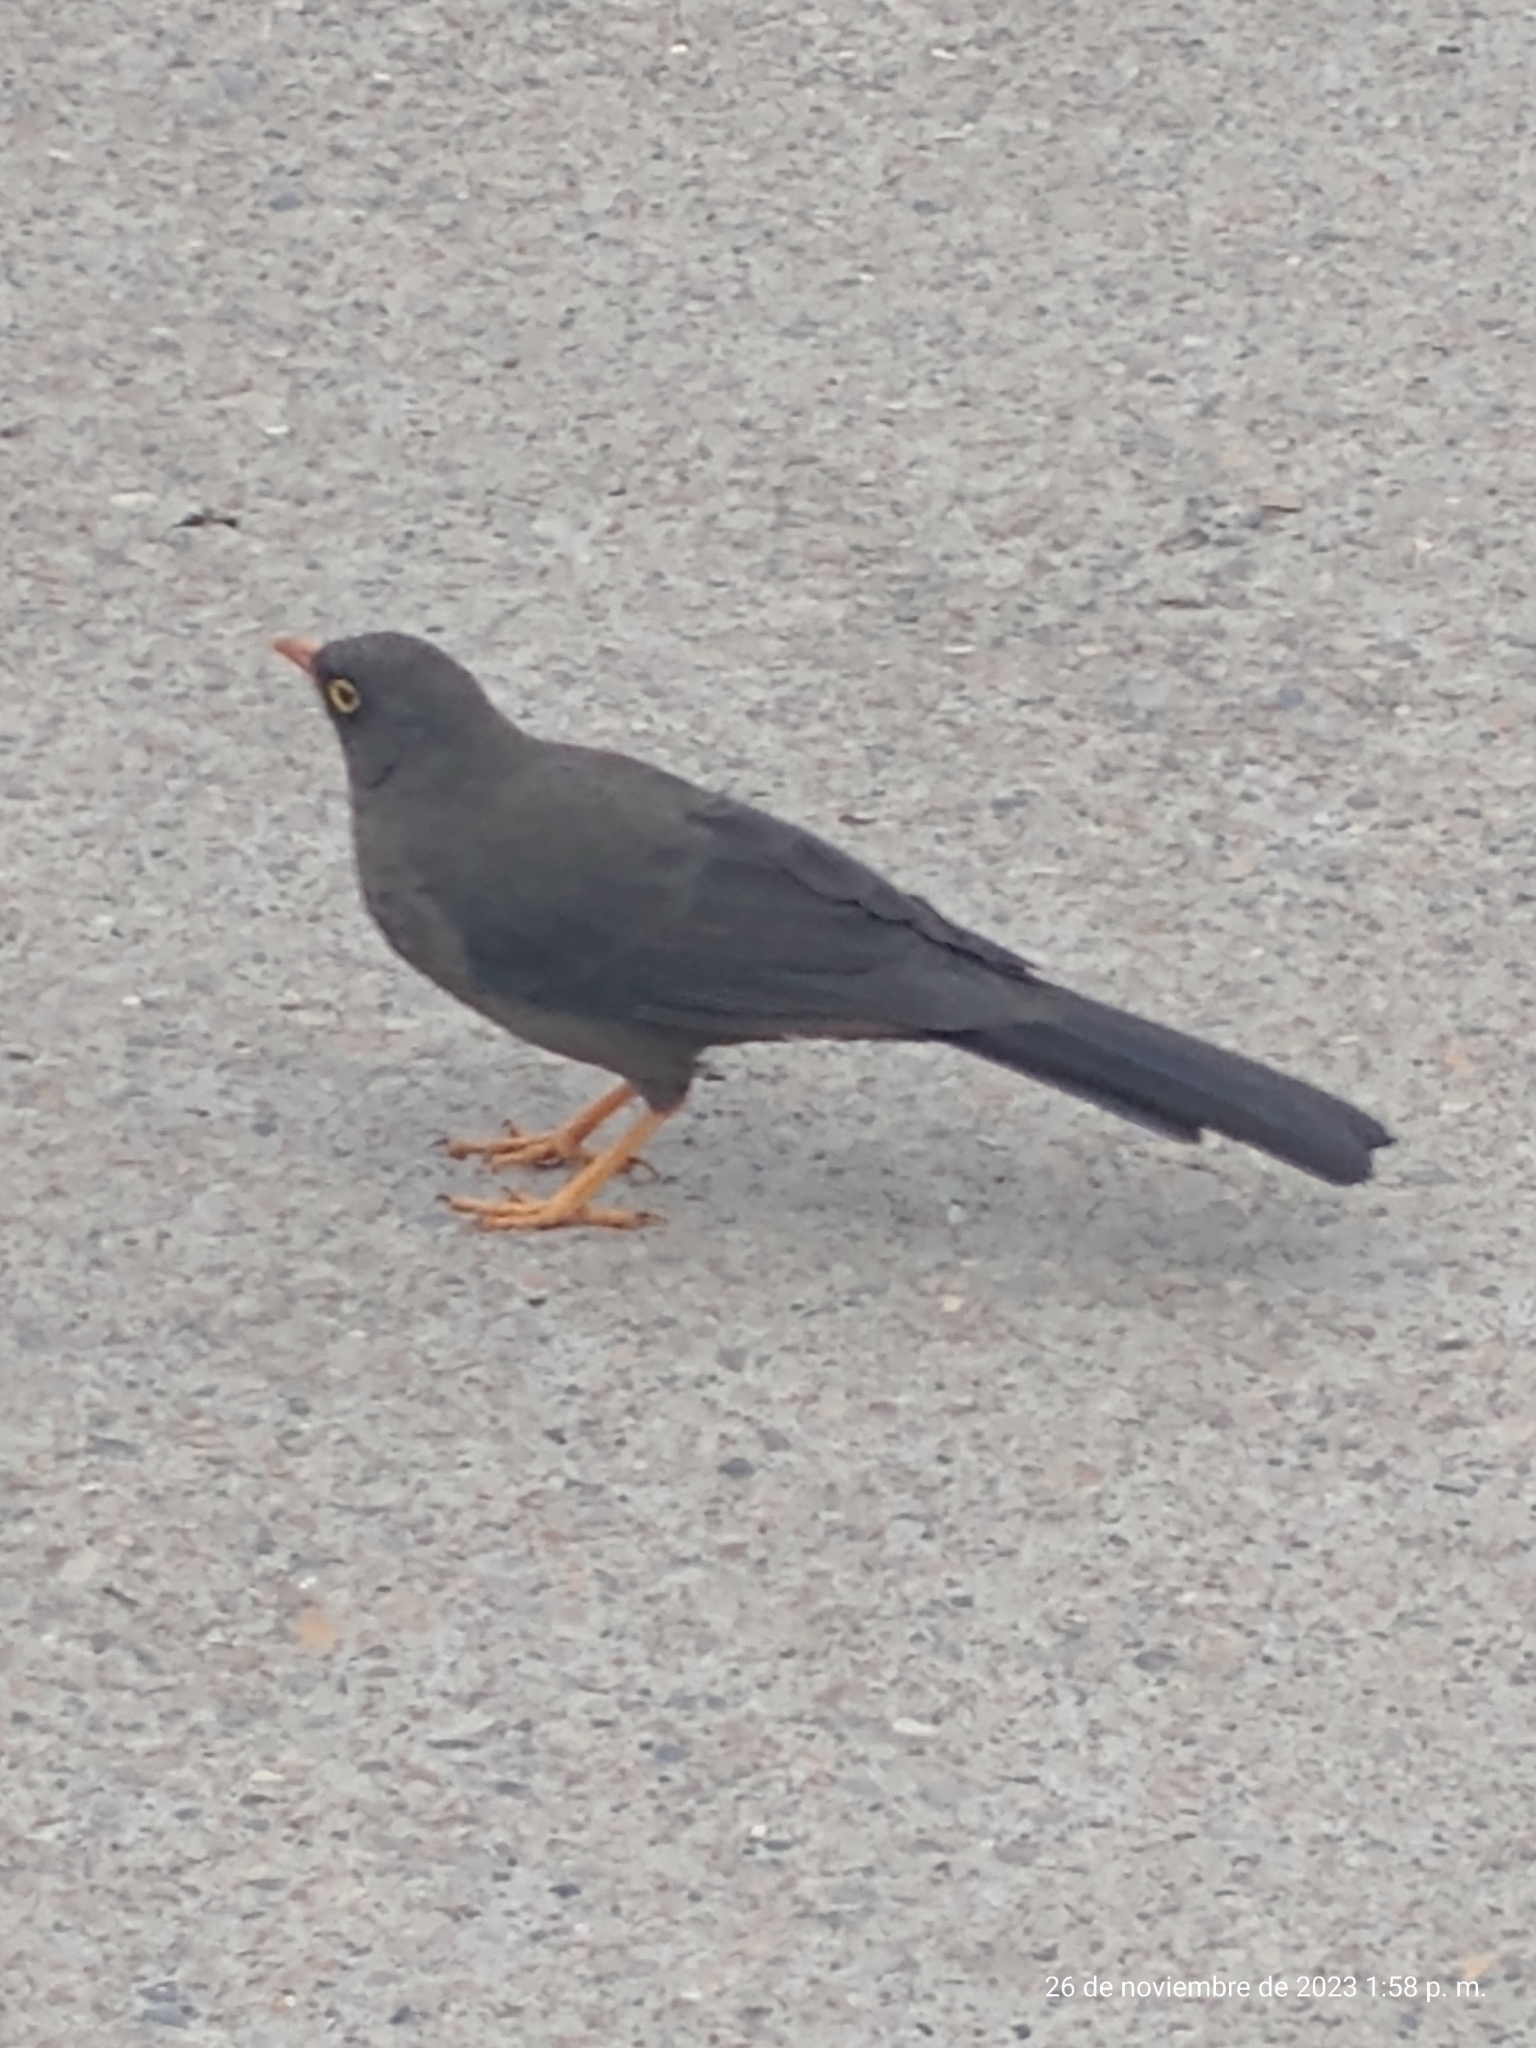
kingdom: Animalia
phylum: Chordata
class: Aves
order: Passeriformes
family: Turdidae
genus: Turdus
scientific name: Turdus fuscater
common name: Great thrush
